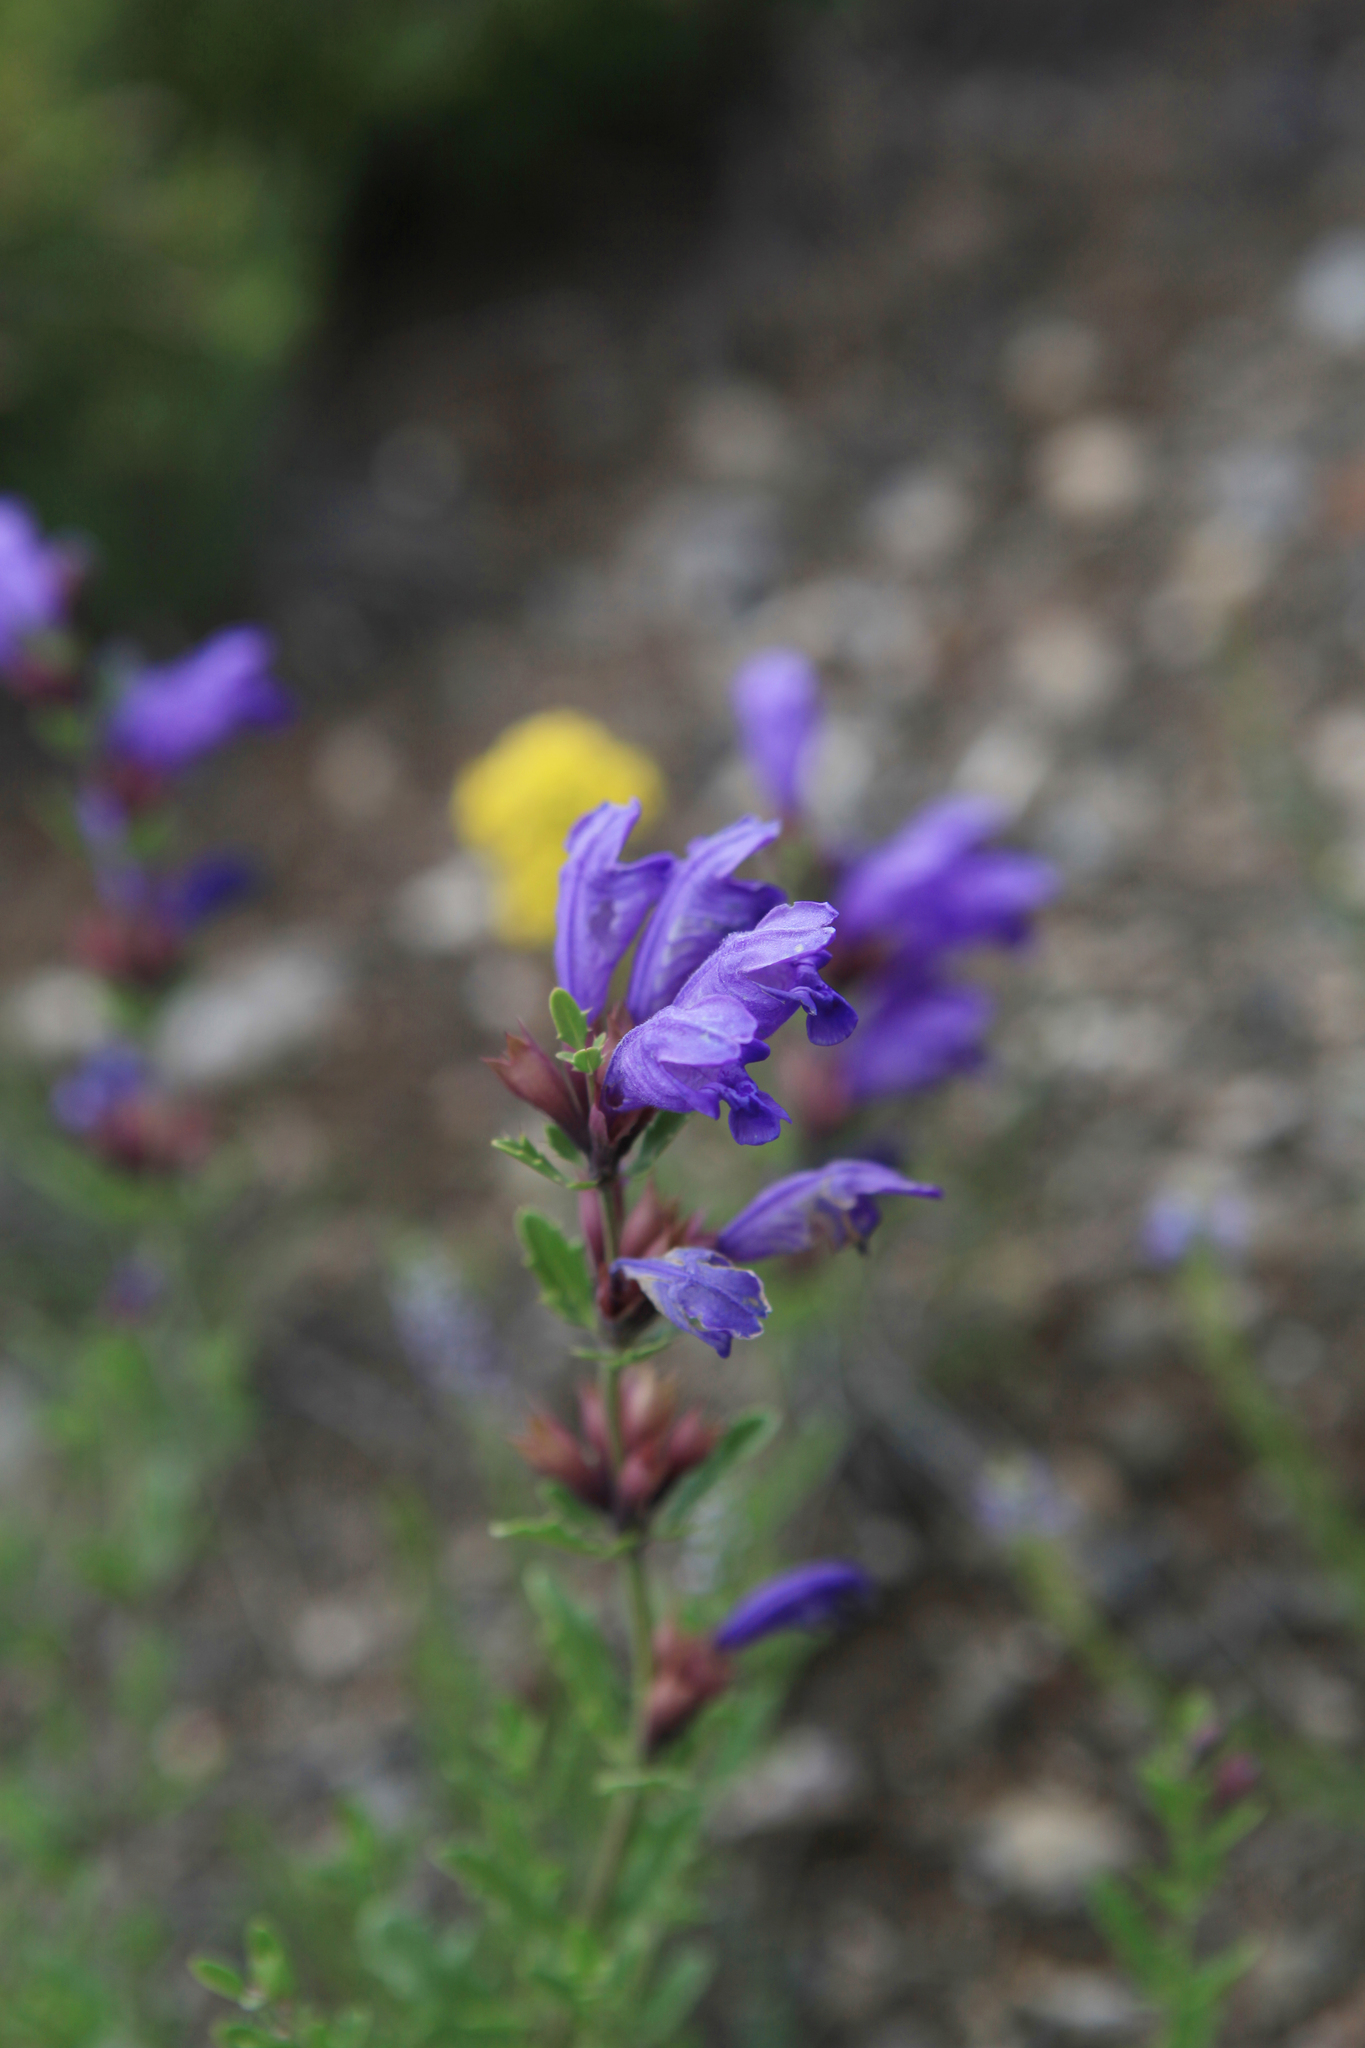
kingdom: Plantae
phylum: Tracheophyta
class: Magnoliopsida
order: Lamiales
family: Lamiaceae
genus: Dracocephalum
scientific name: Dracocephalum peregrinum
